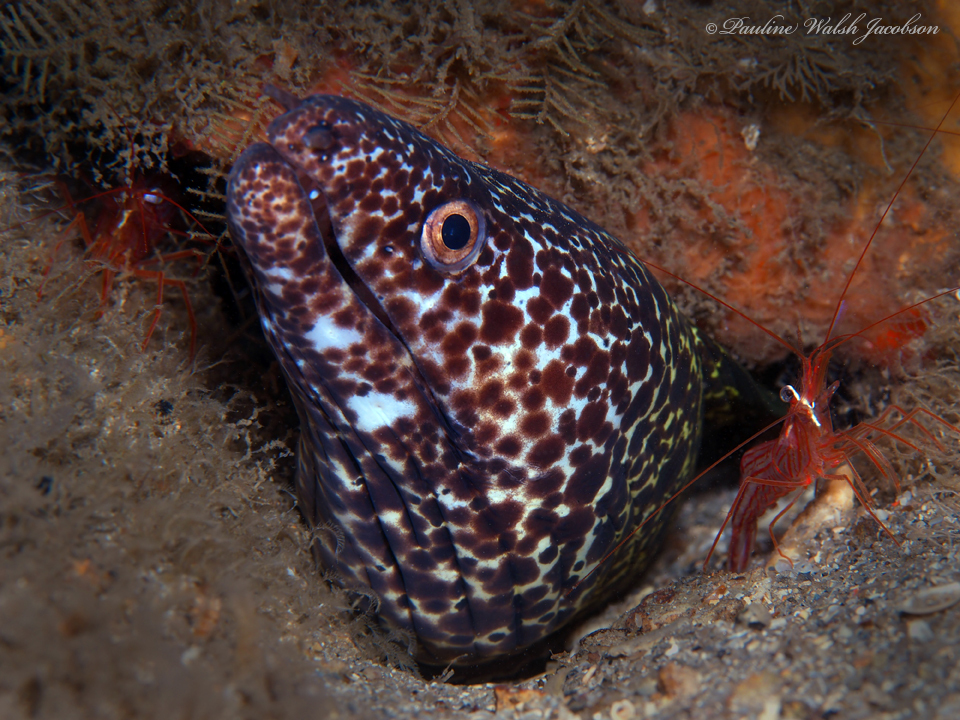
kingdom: Animalia
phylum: Chordata
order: Anguilliformes
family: Muraenidae
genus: Gymnothorax
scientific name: Gymnothorax moringa
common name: Spotted moray
